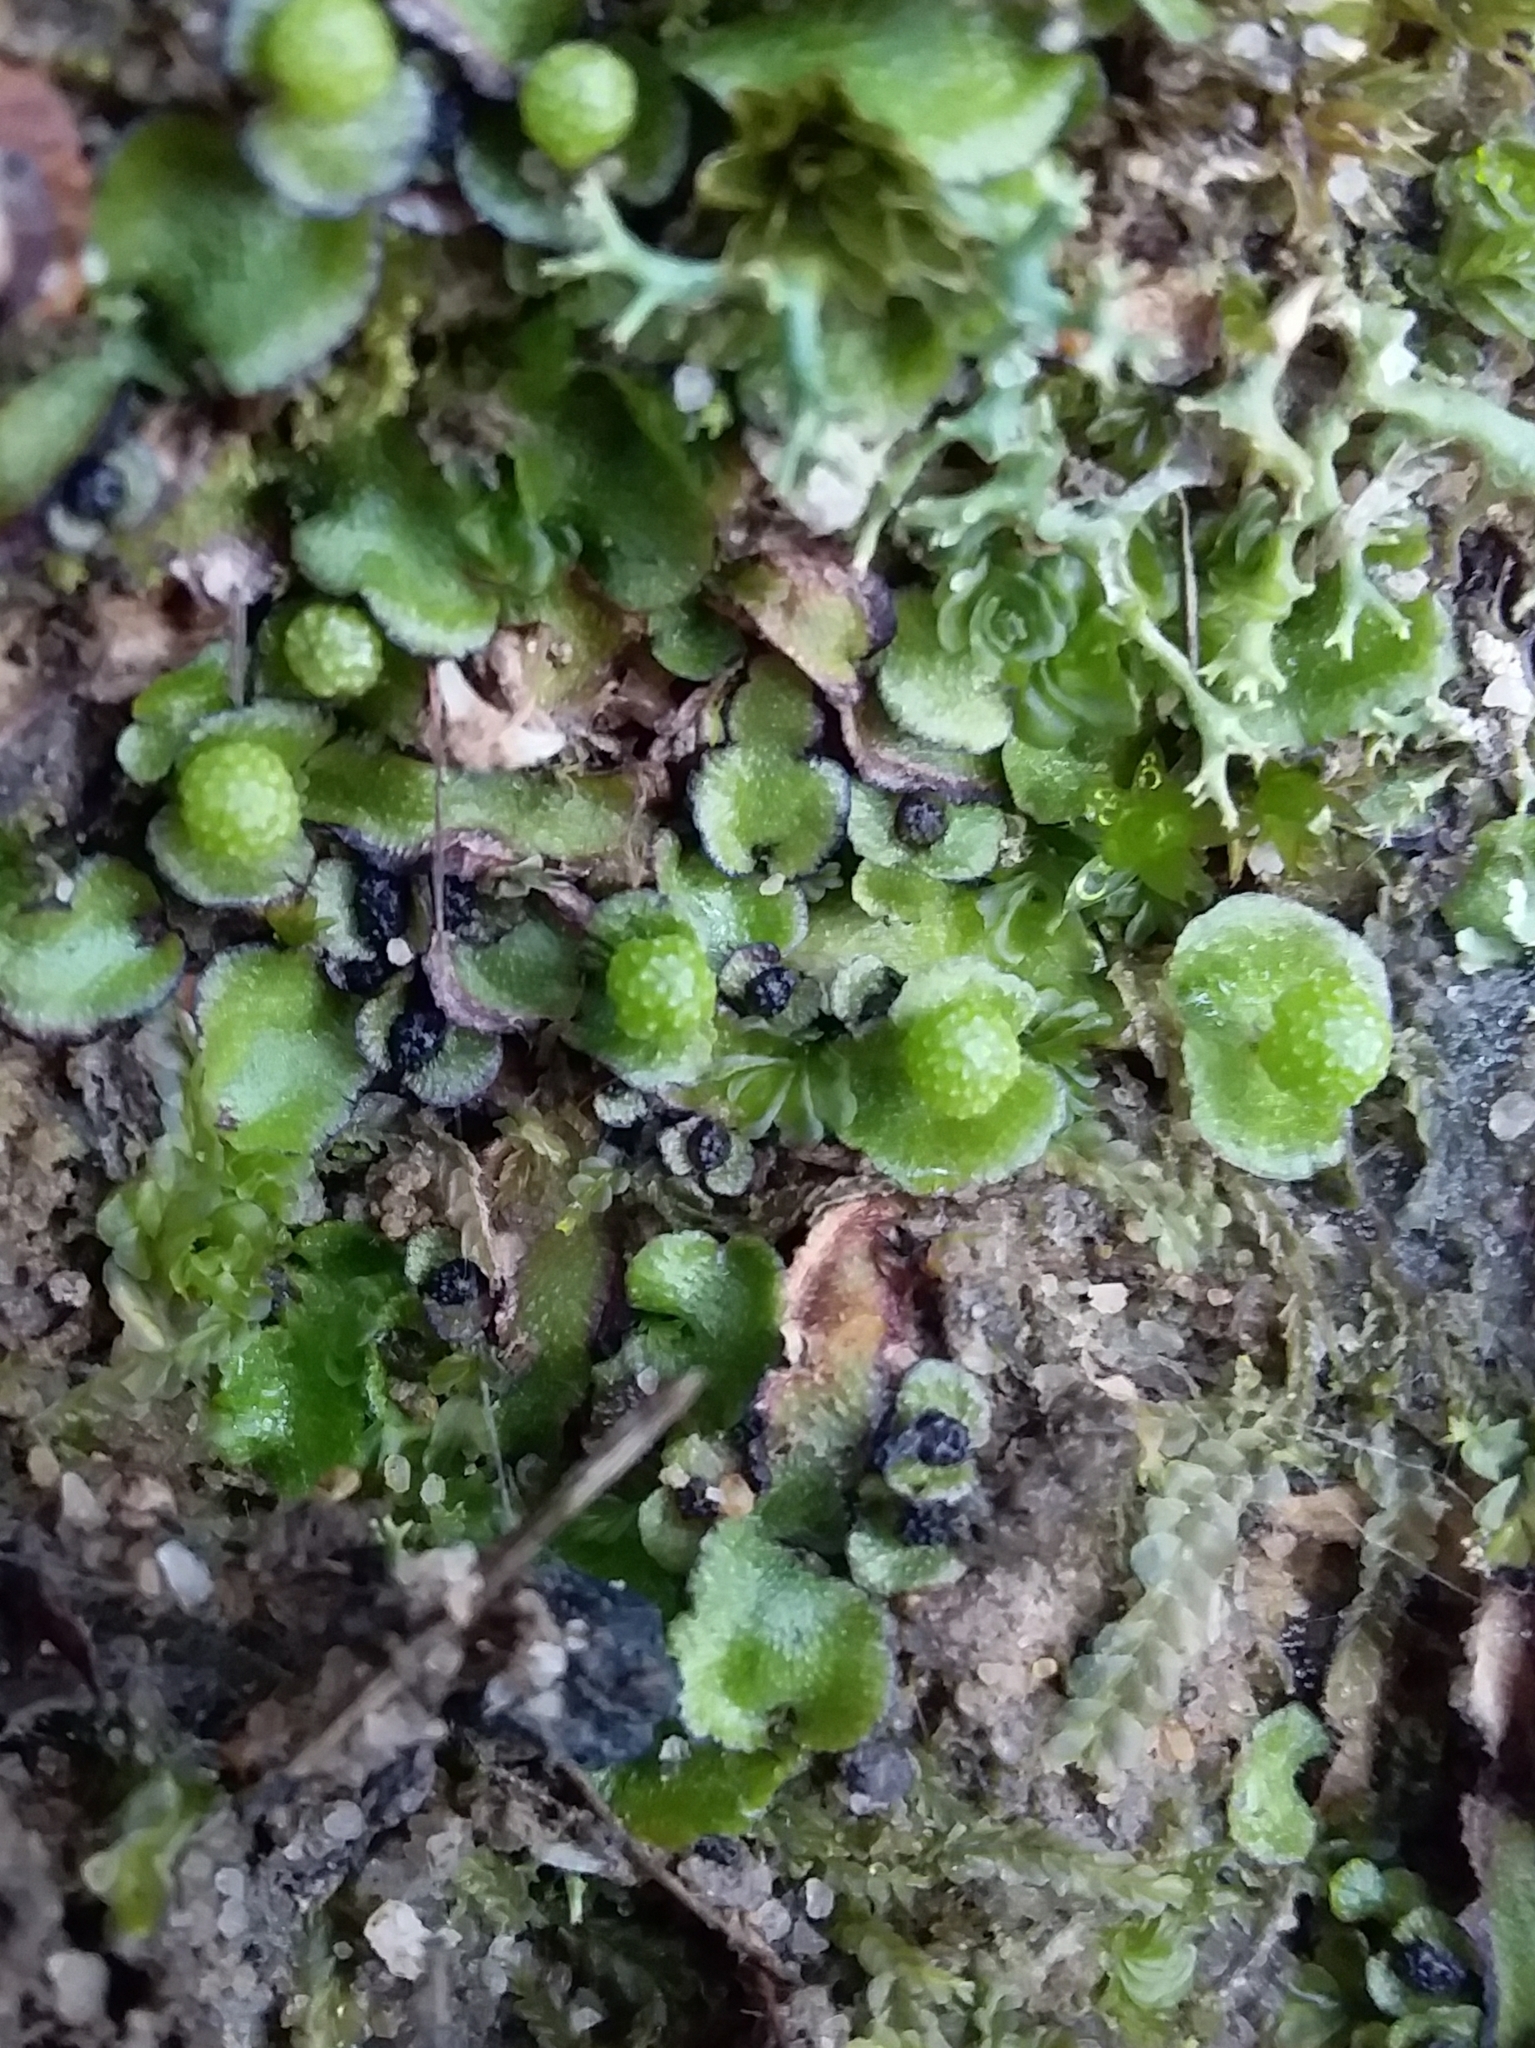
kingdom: Plantae
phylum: Marchantiophyta
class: Marchantiopsida
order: Marchantiales
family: Aytoniaceae
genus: Asterella
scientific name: Asterella drummondii
